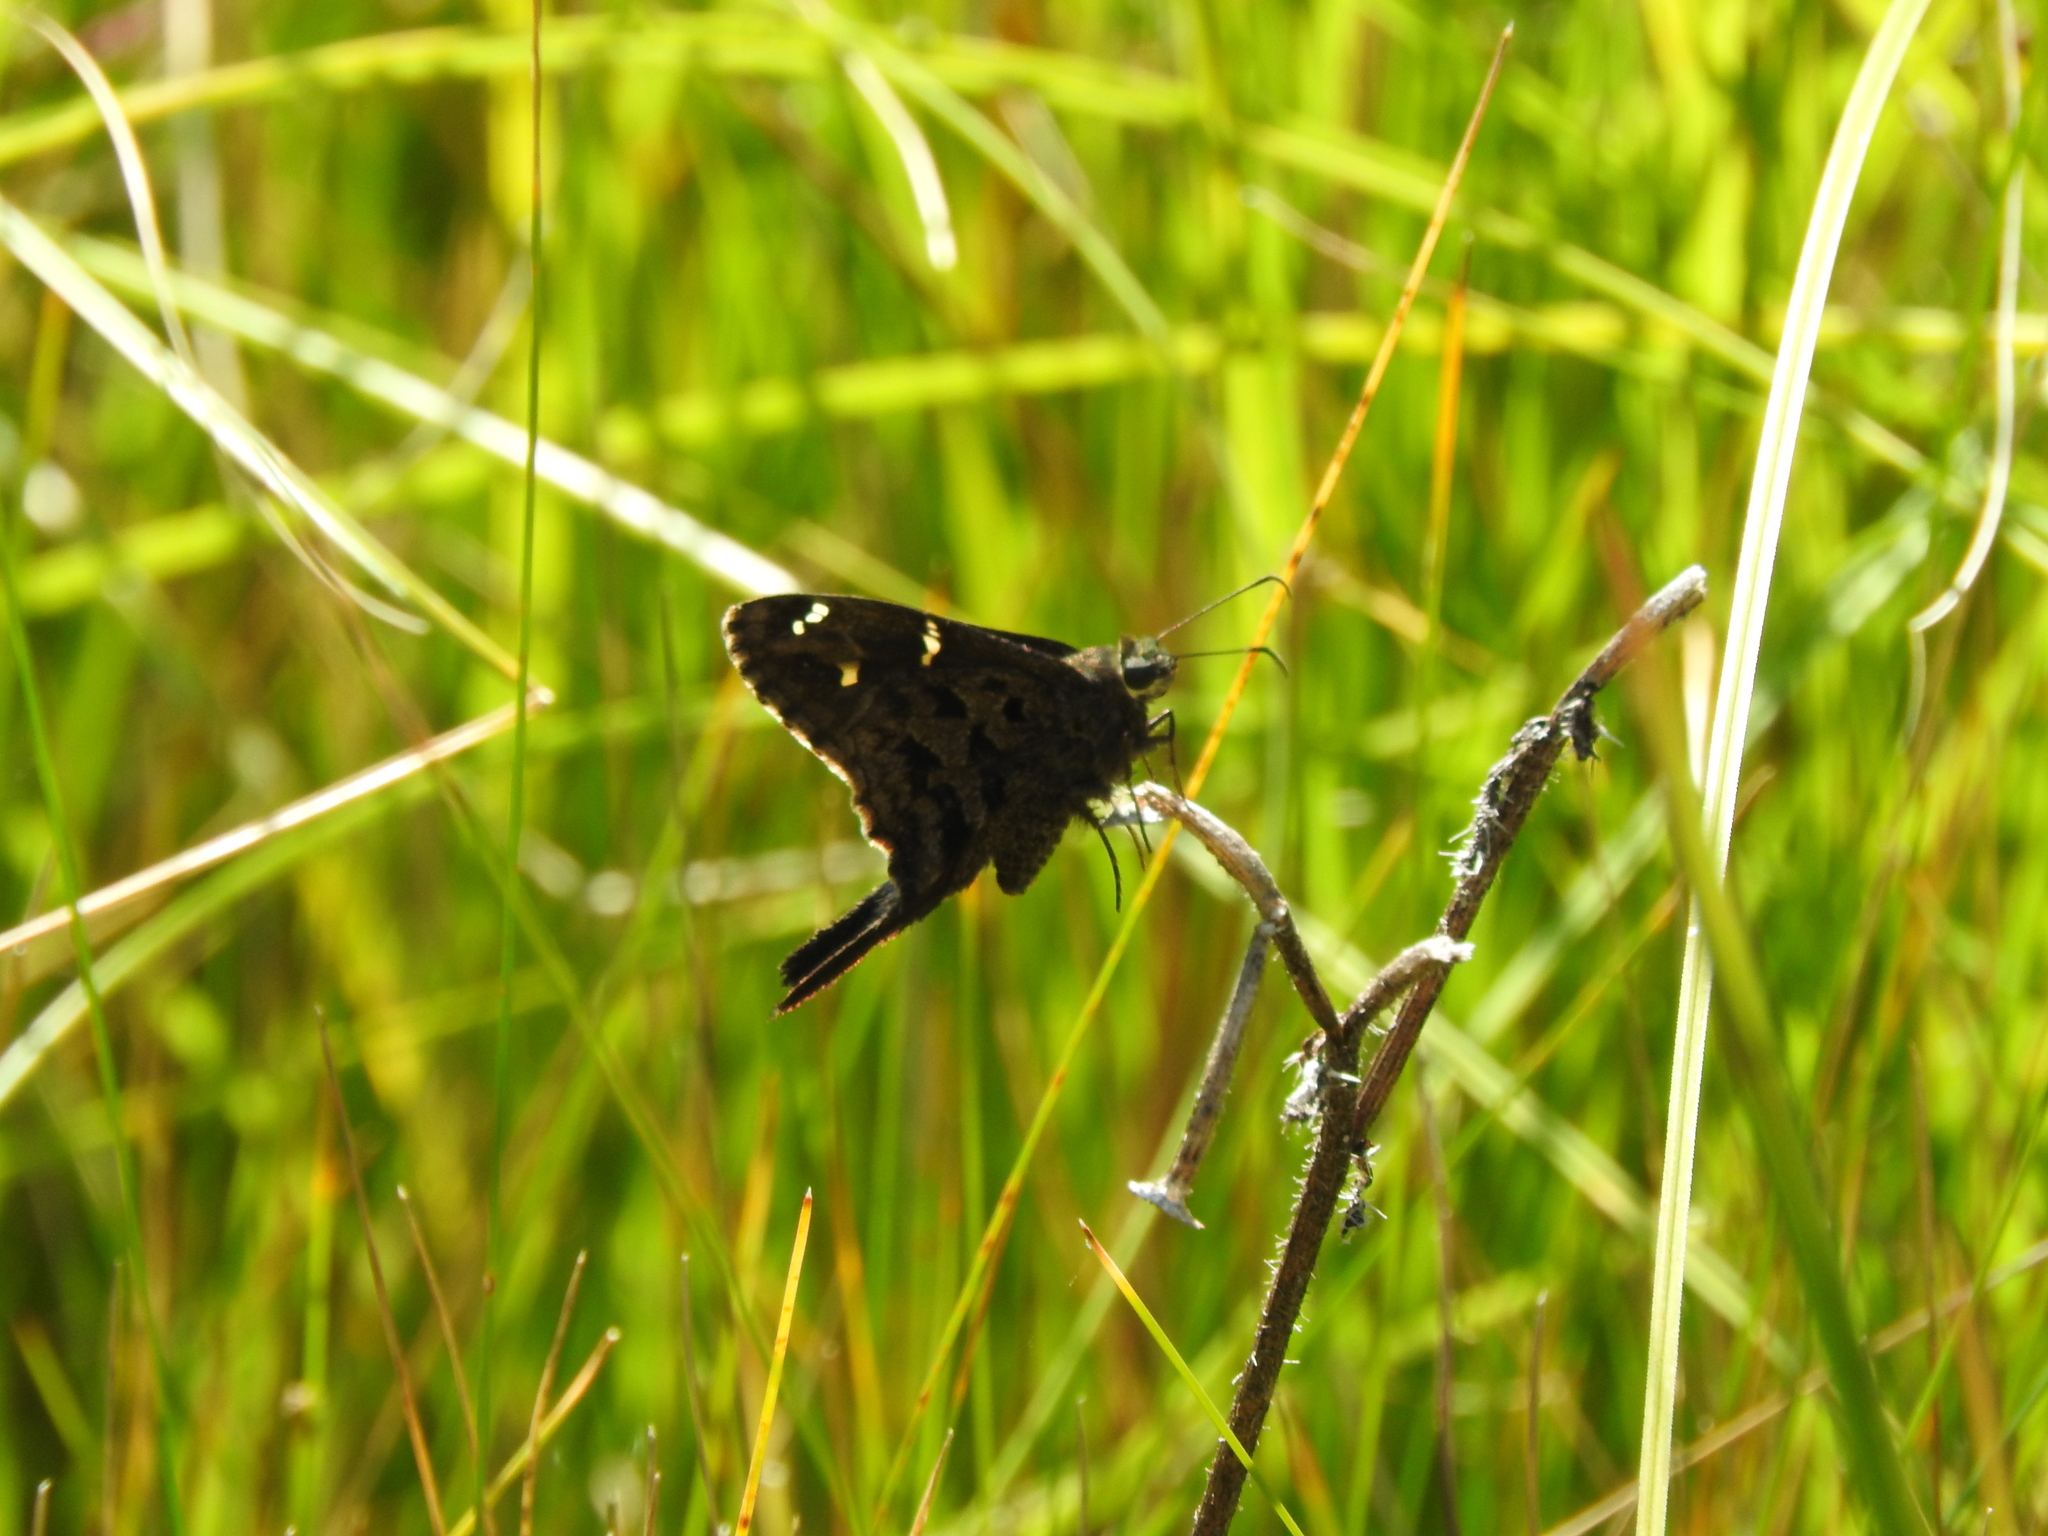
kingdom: Animalia
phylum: Arthropoda
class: Insecta
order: Lepidoptera
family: Hesperiidae
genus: Thorybes
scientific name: Thorybes
